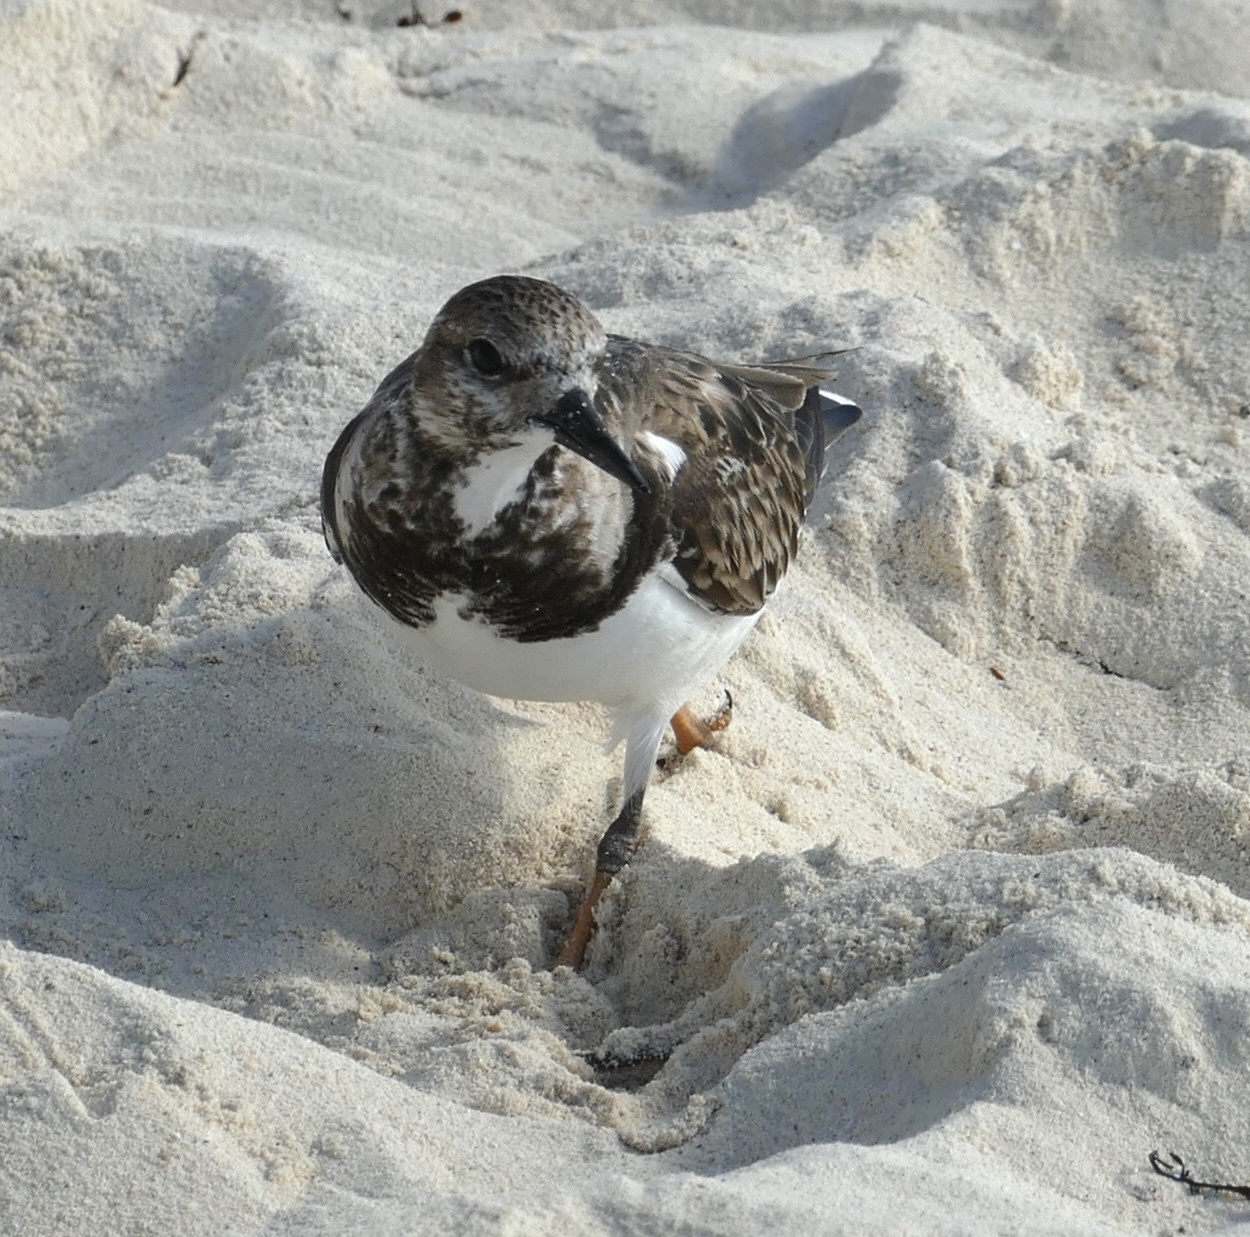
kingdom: Animalia
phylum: Chordata
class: Aves
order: Charadriiformes
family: Scolopacidae
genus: Arenaria
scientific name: Arenaria interpres
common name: Ruddy turnstone
